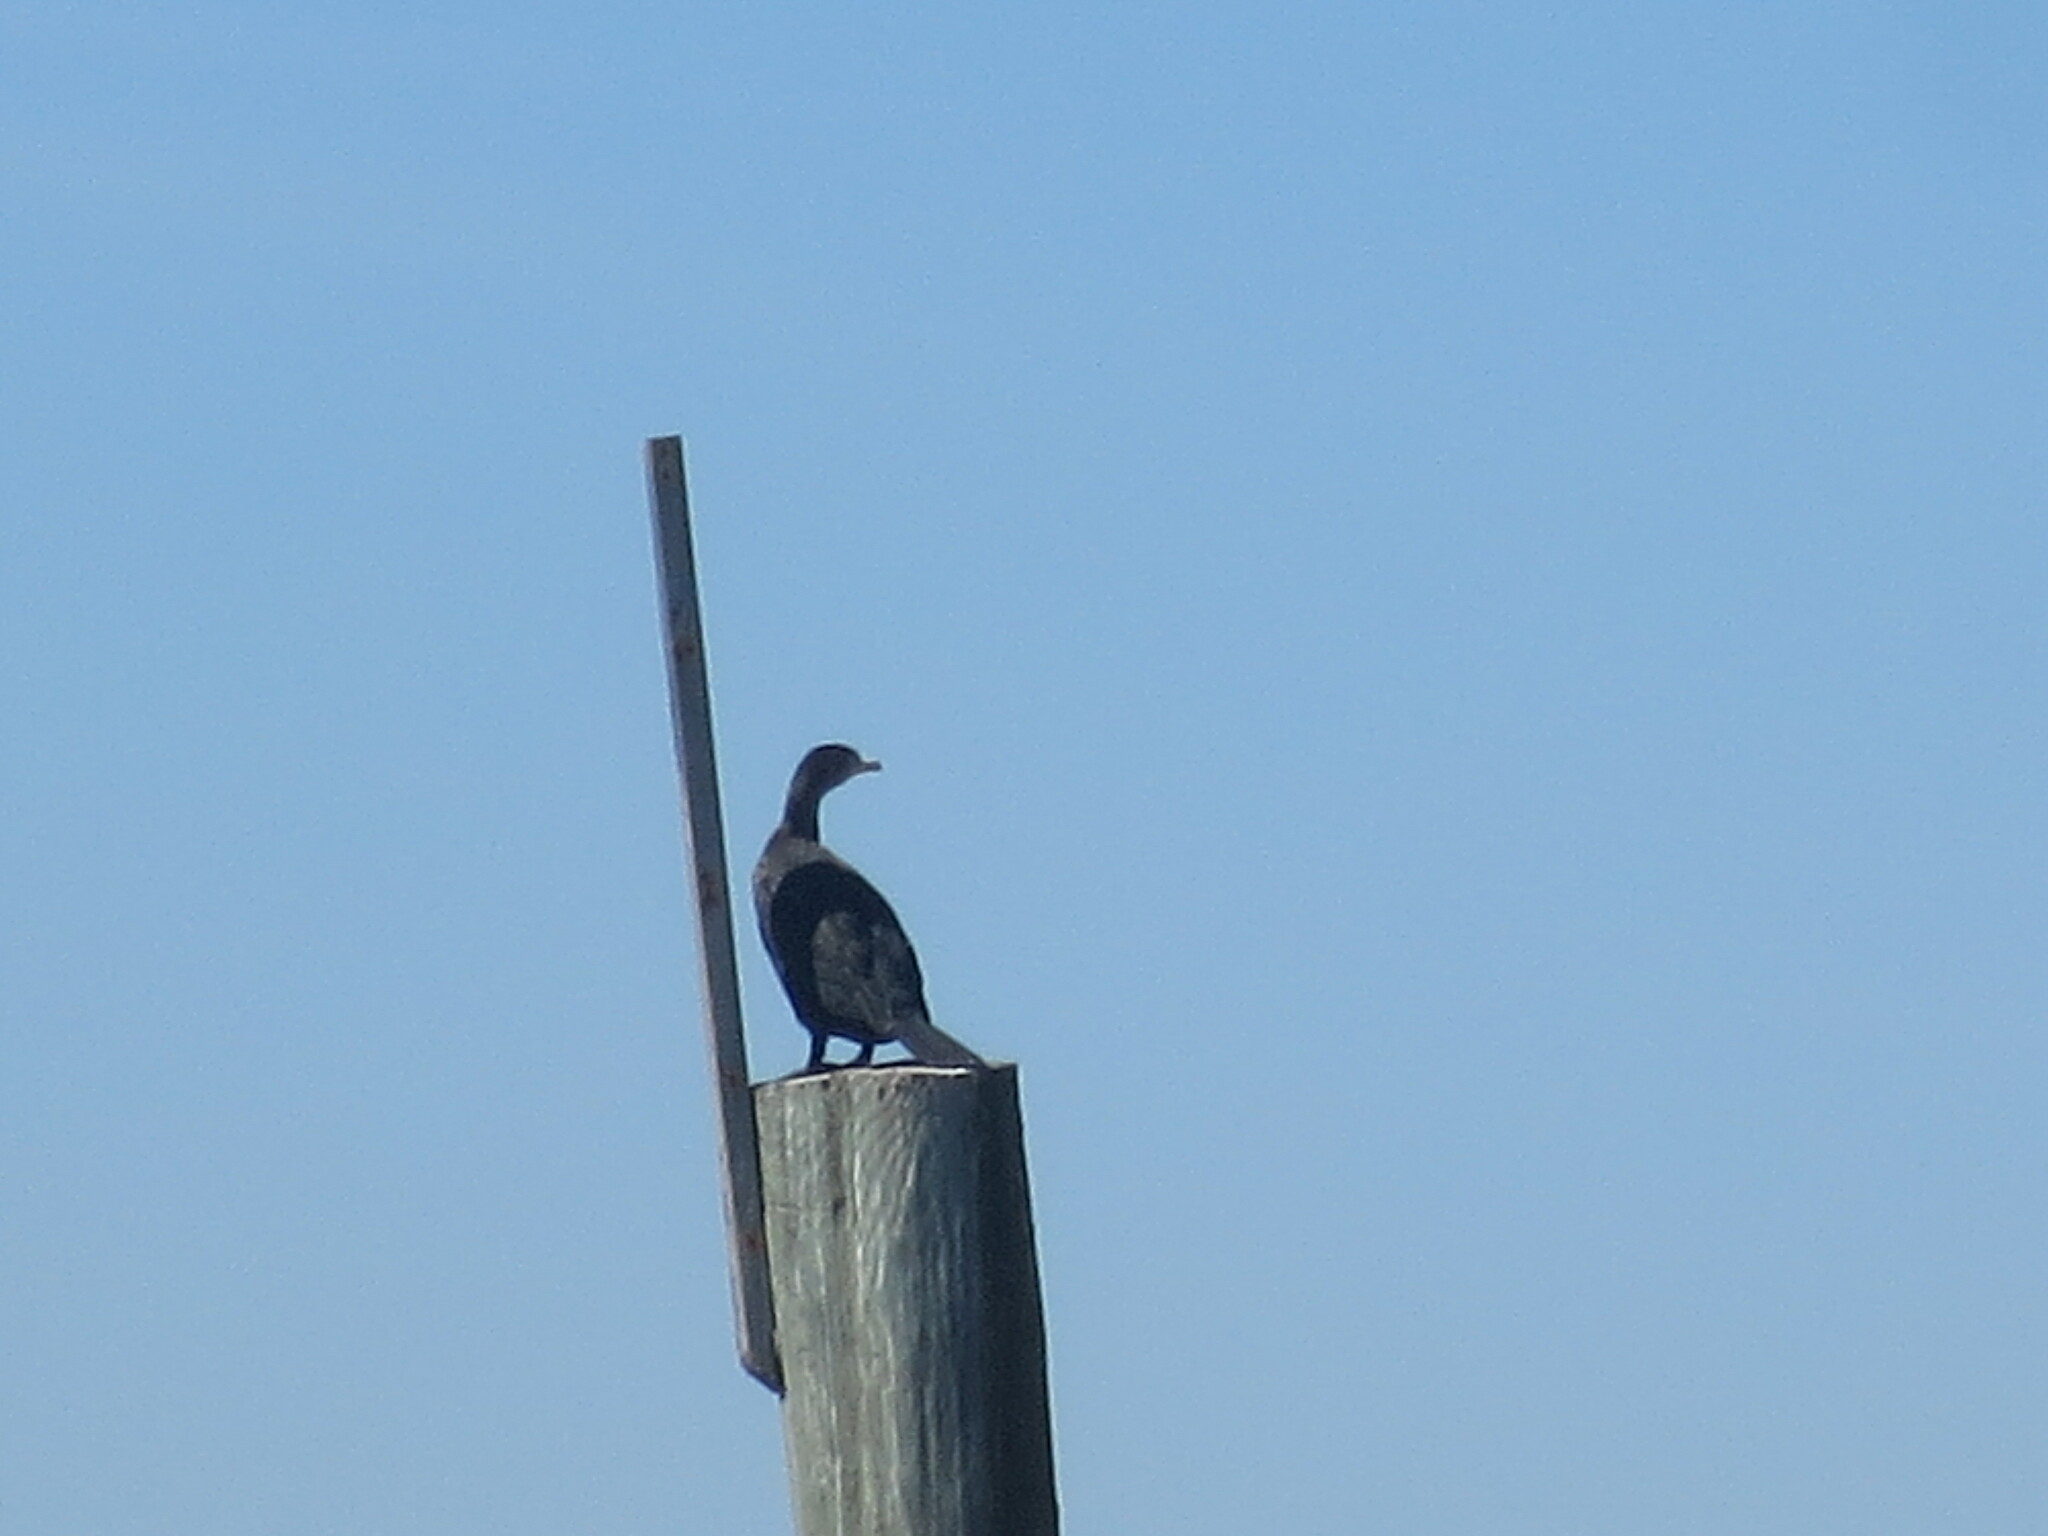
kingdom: Animalia
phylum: Chordata
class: Aves
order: Suliformes
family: Phalacrocoracidae
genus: Phalacrocorax
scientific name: Phalacrocorax auritus
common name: Double-crested cormorant
